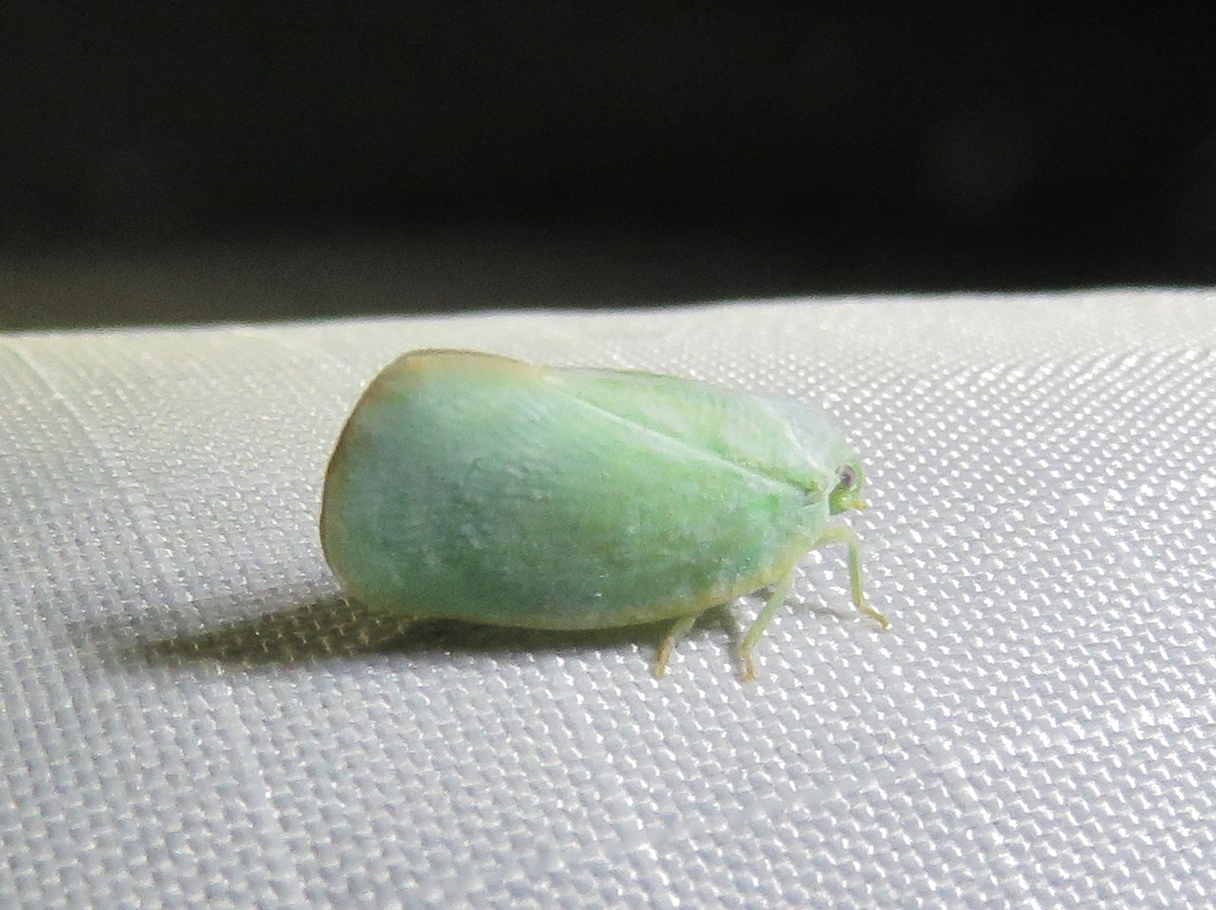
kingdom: Animalia
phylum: Arthropoda
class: Insecta
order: Hemiptera
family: Flatidae
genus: Ormenoides
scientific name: Ormenoides venusta
